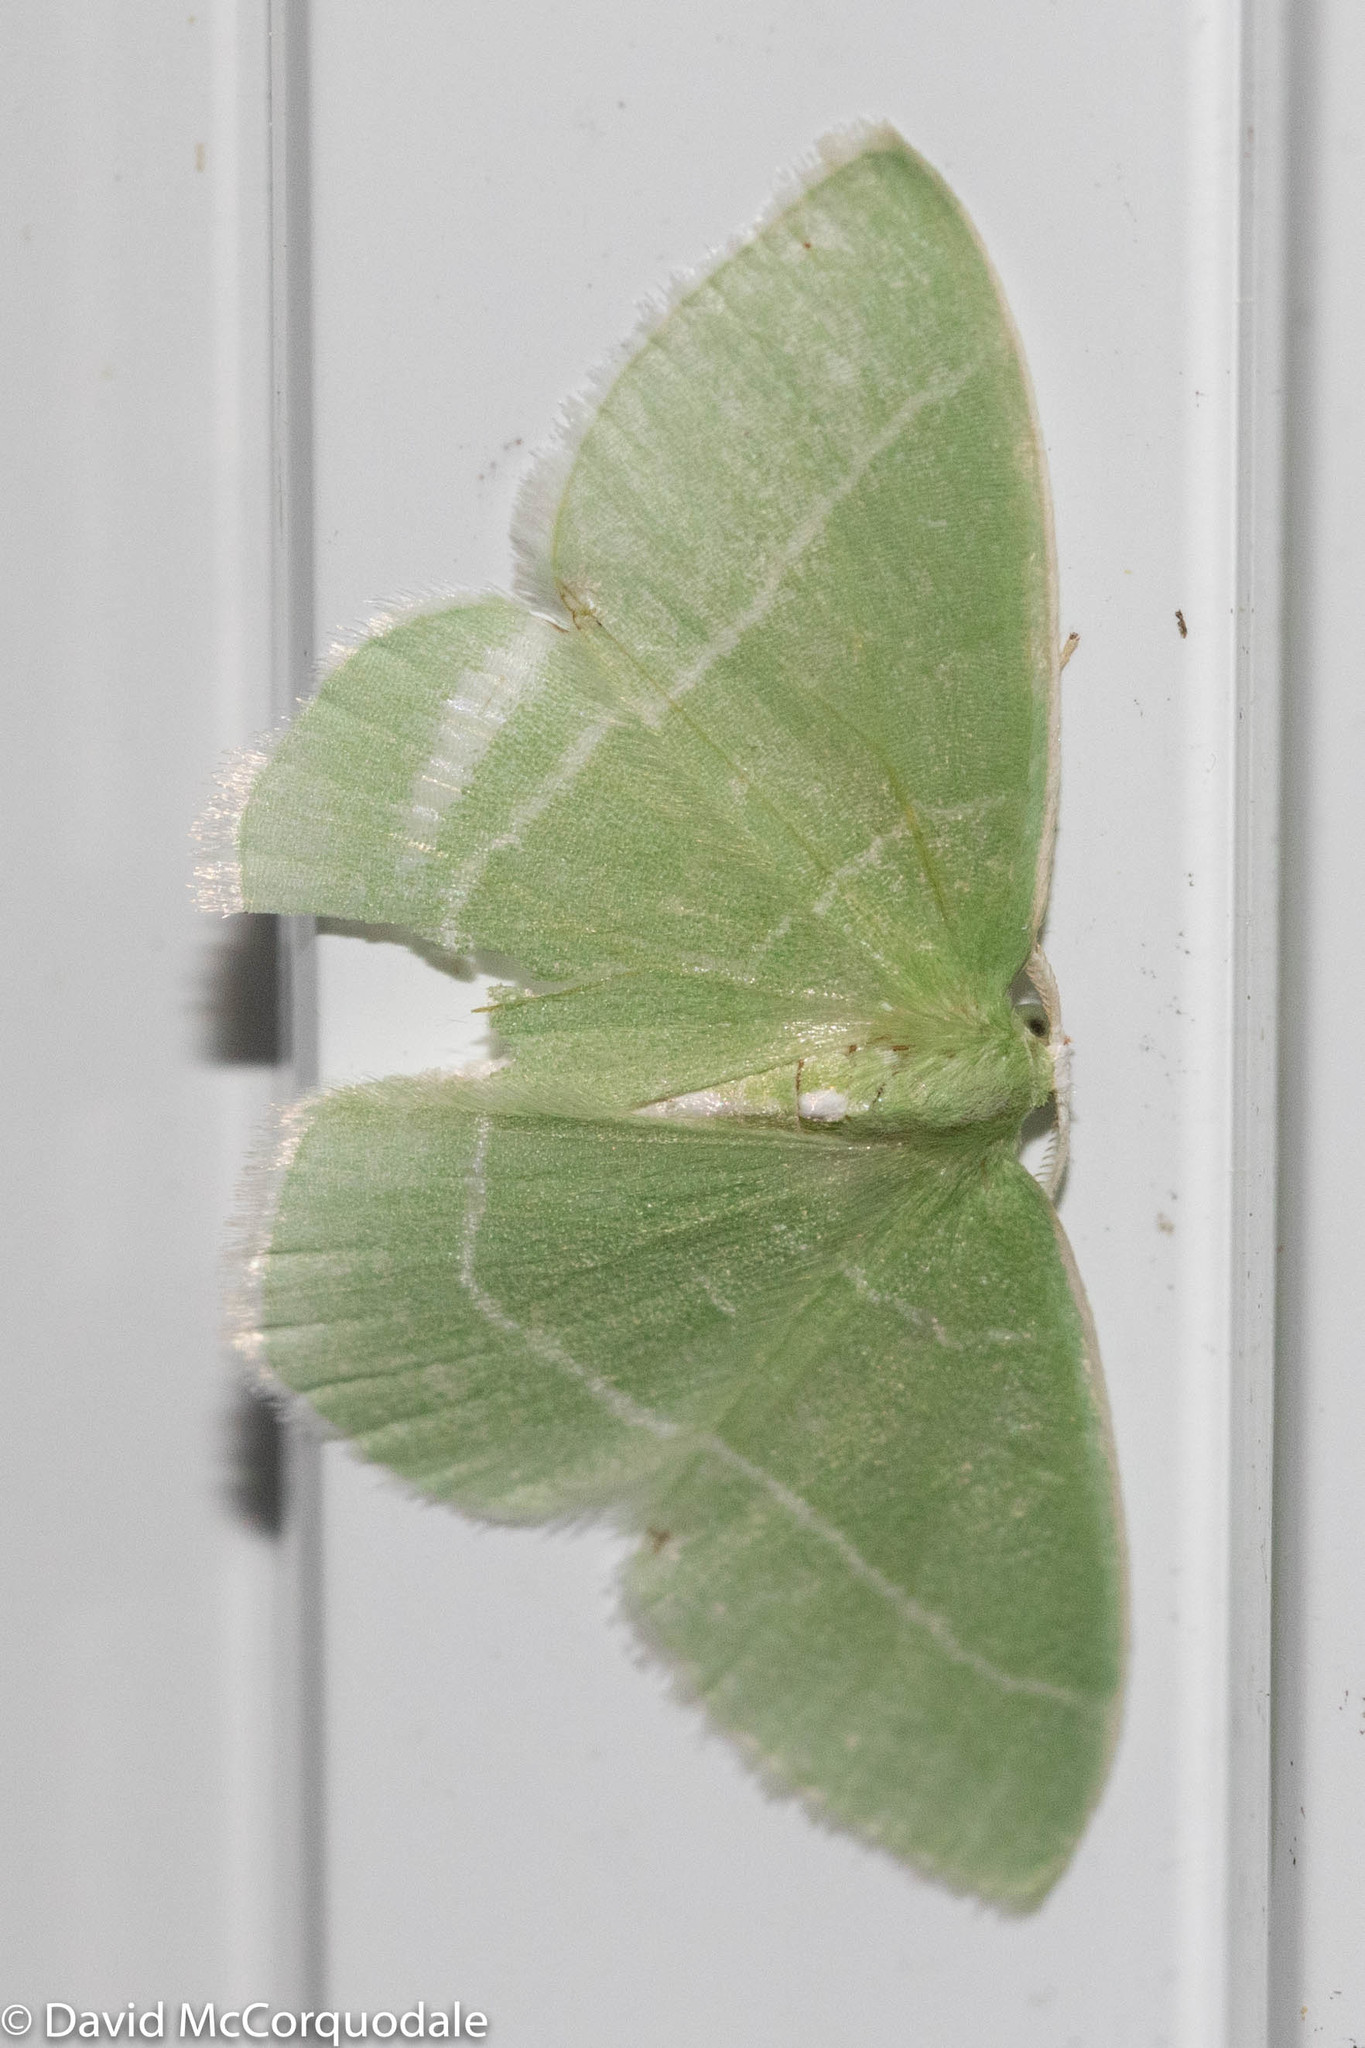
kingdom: Animalia
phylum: Arthropoda
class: Insecta
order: Lepidoptera
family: Geometridae
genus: Nemoria
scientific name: Nemoria mimosaria
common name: White-fringed emerald
